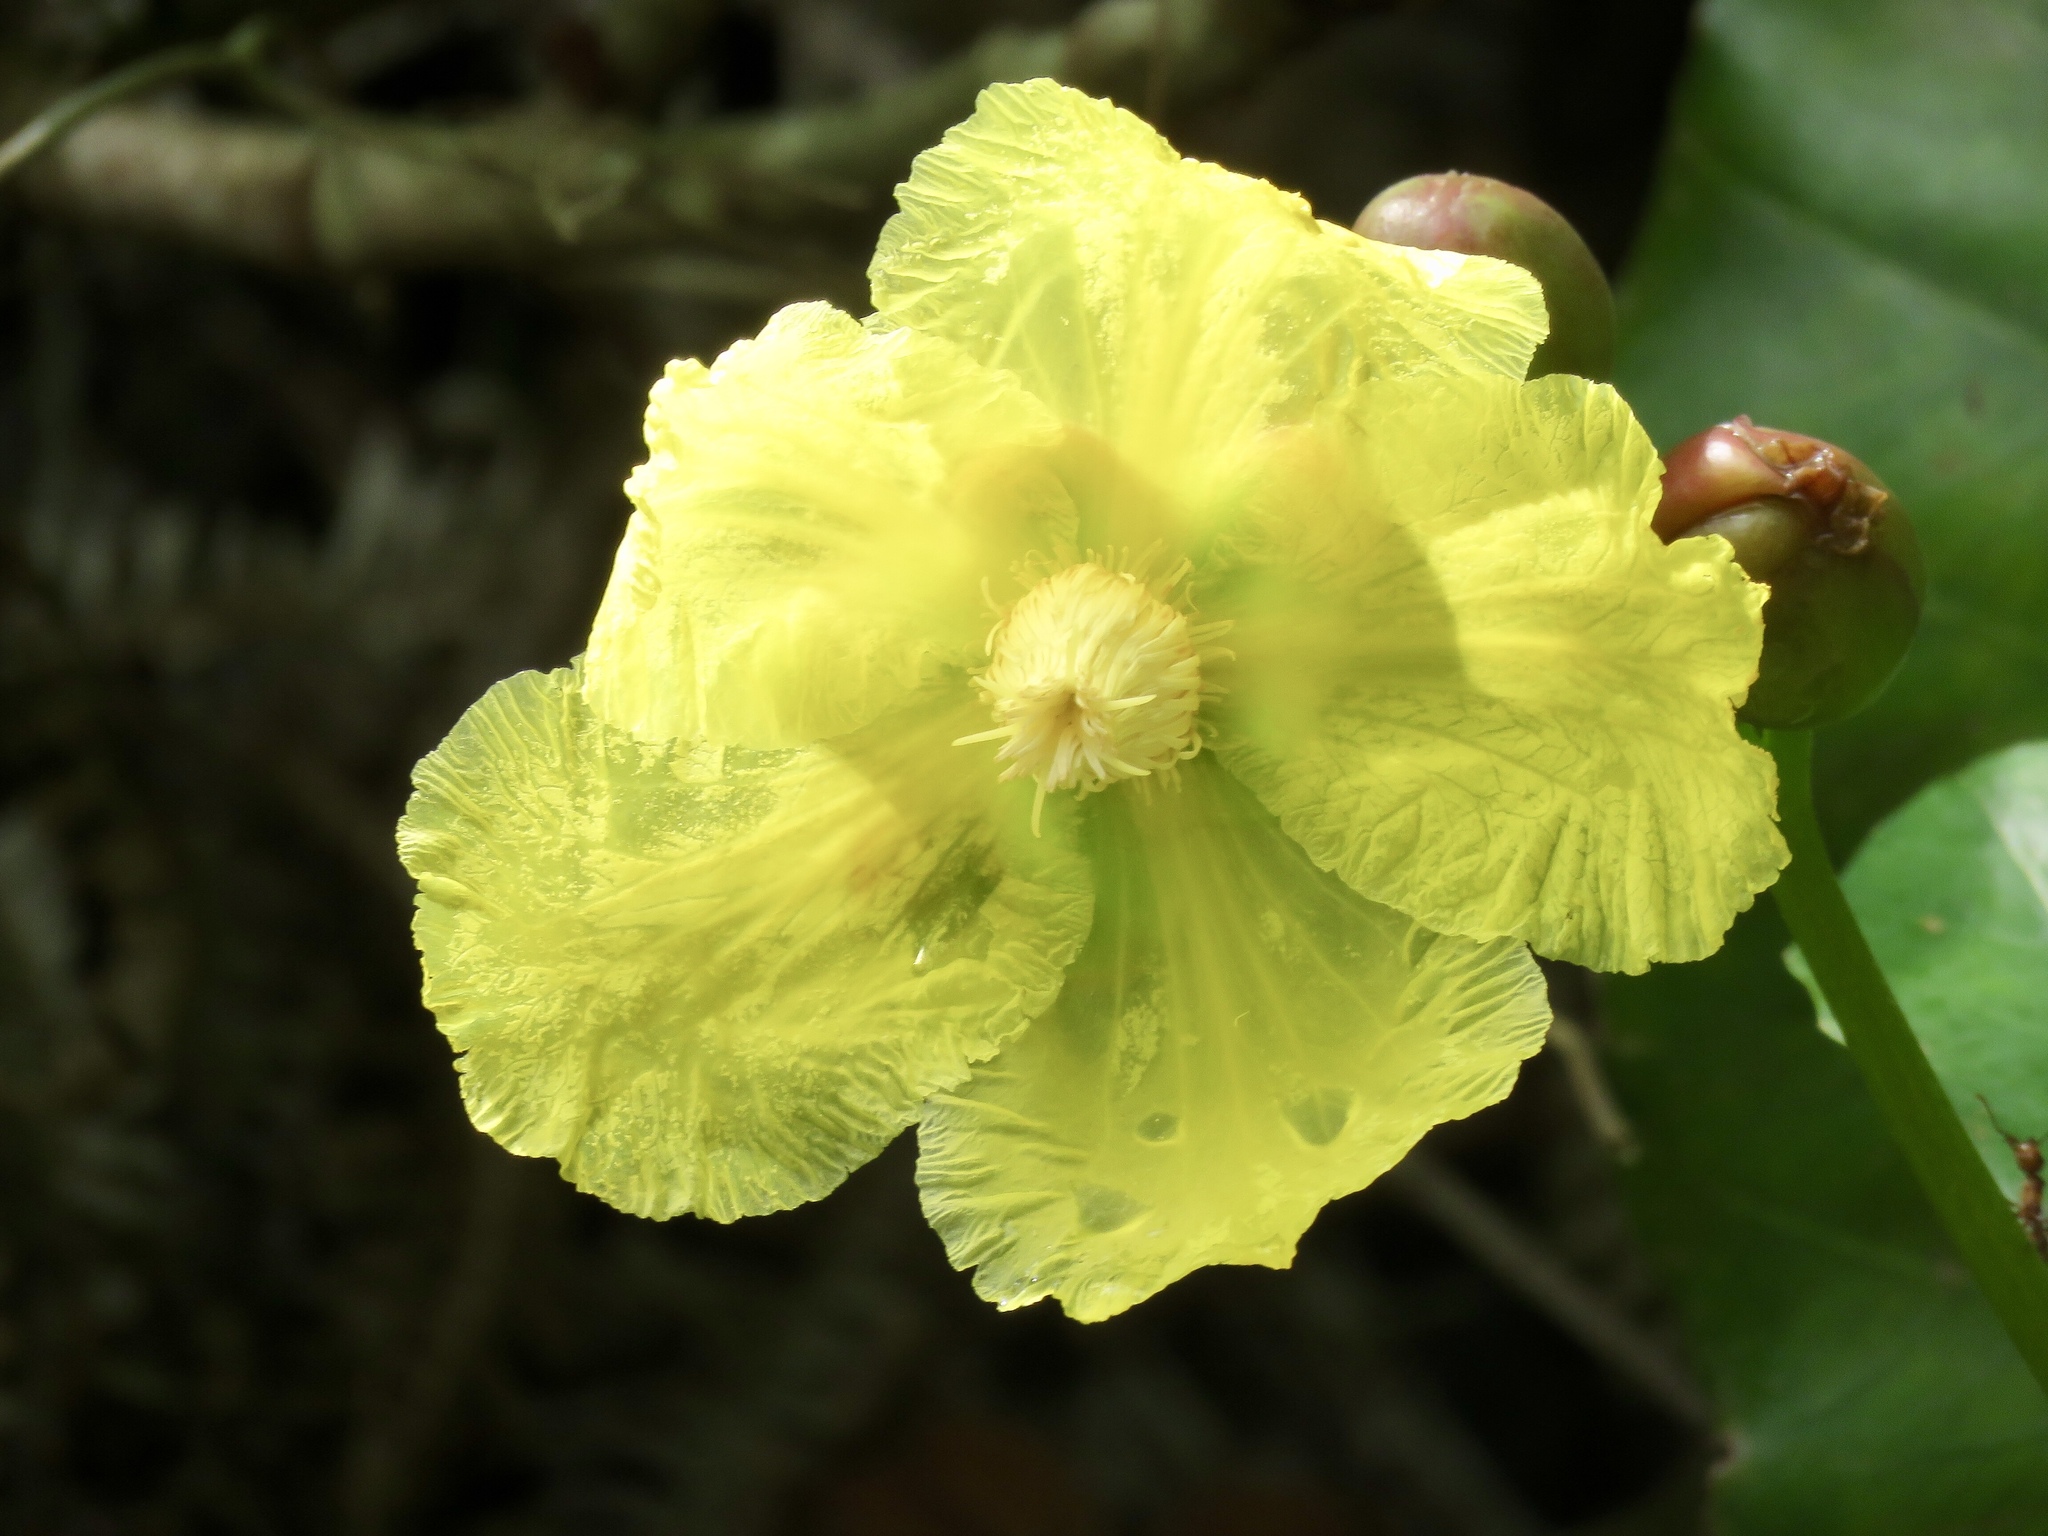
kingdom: Plantae
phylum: Tracheophyta
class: Magnoliopsida
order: Cucurbitales
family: Cucurbitaceae
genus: Luffa
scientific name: Luffa aegyptiaca
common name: Sponge gourd
